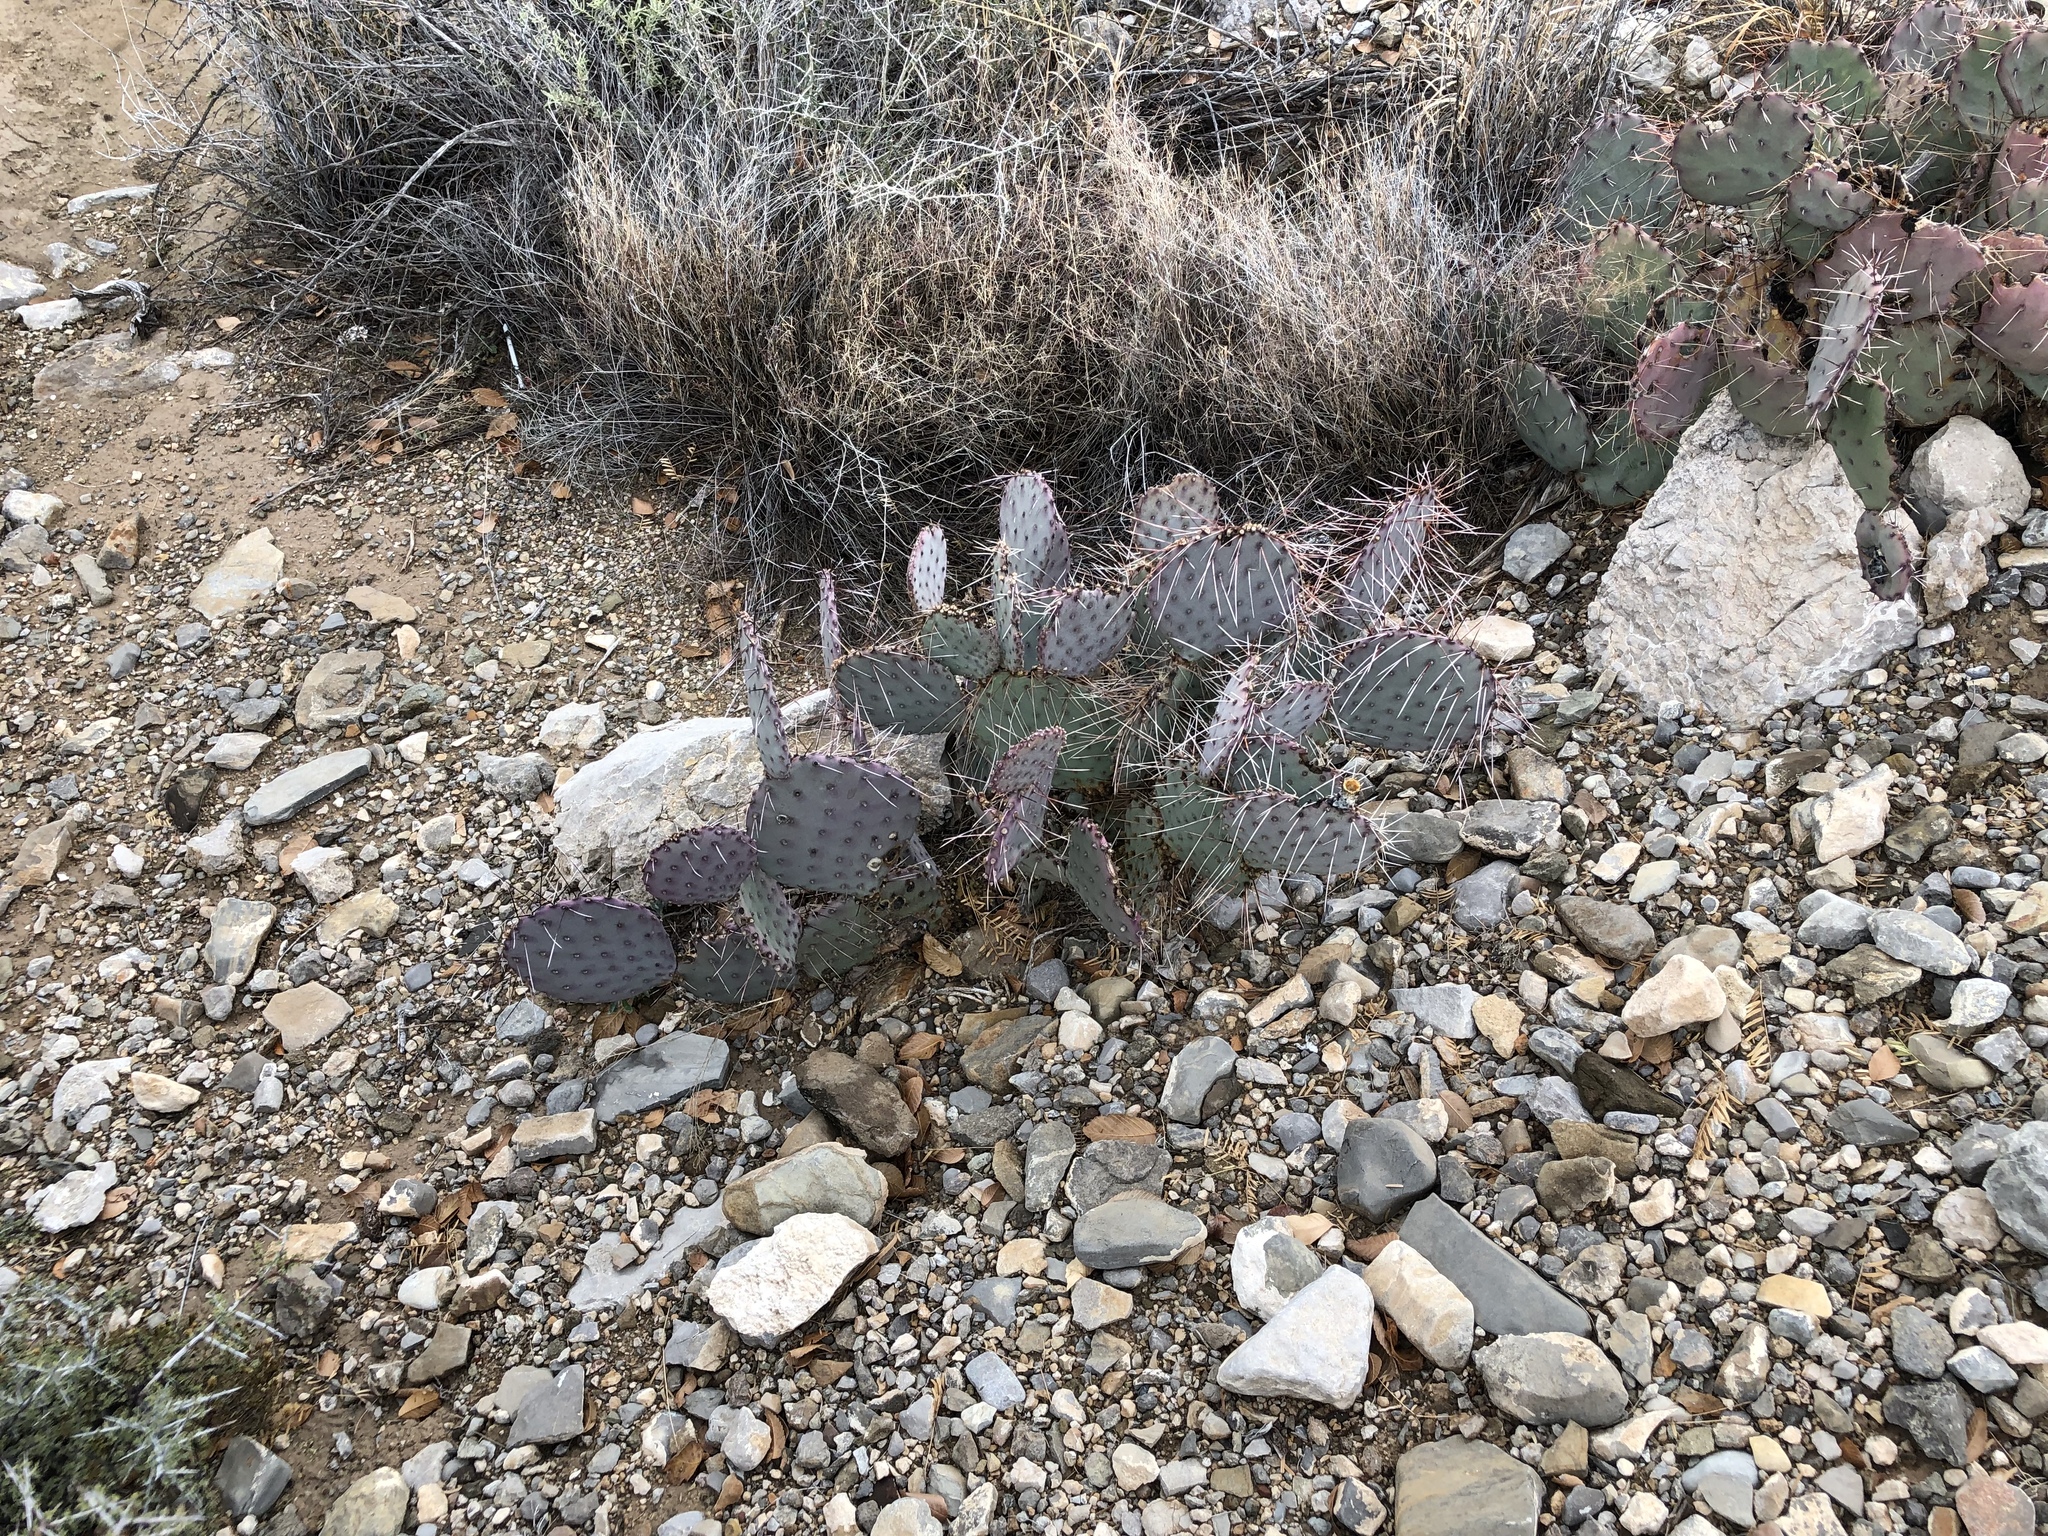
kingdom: Plantae
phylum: Tracheophyta
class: Magnoliopsida
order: Caryophyllales
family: Cactaceae
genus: Opuntia
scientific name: Opuntia macrocentra
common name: Purple prickly-pear
